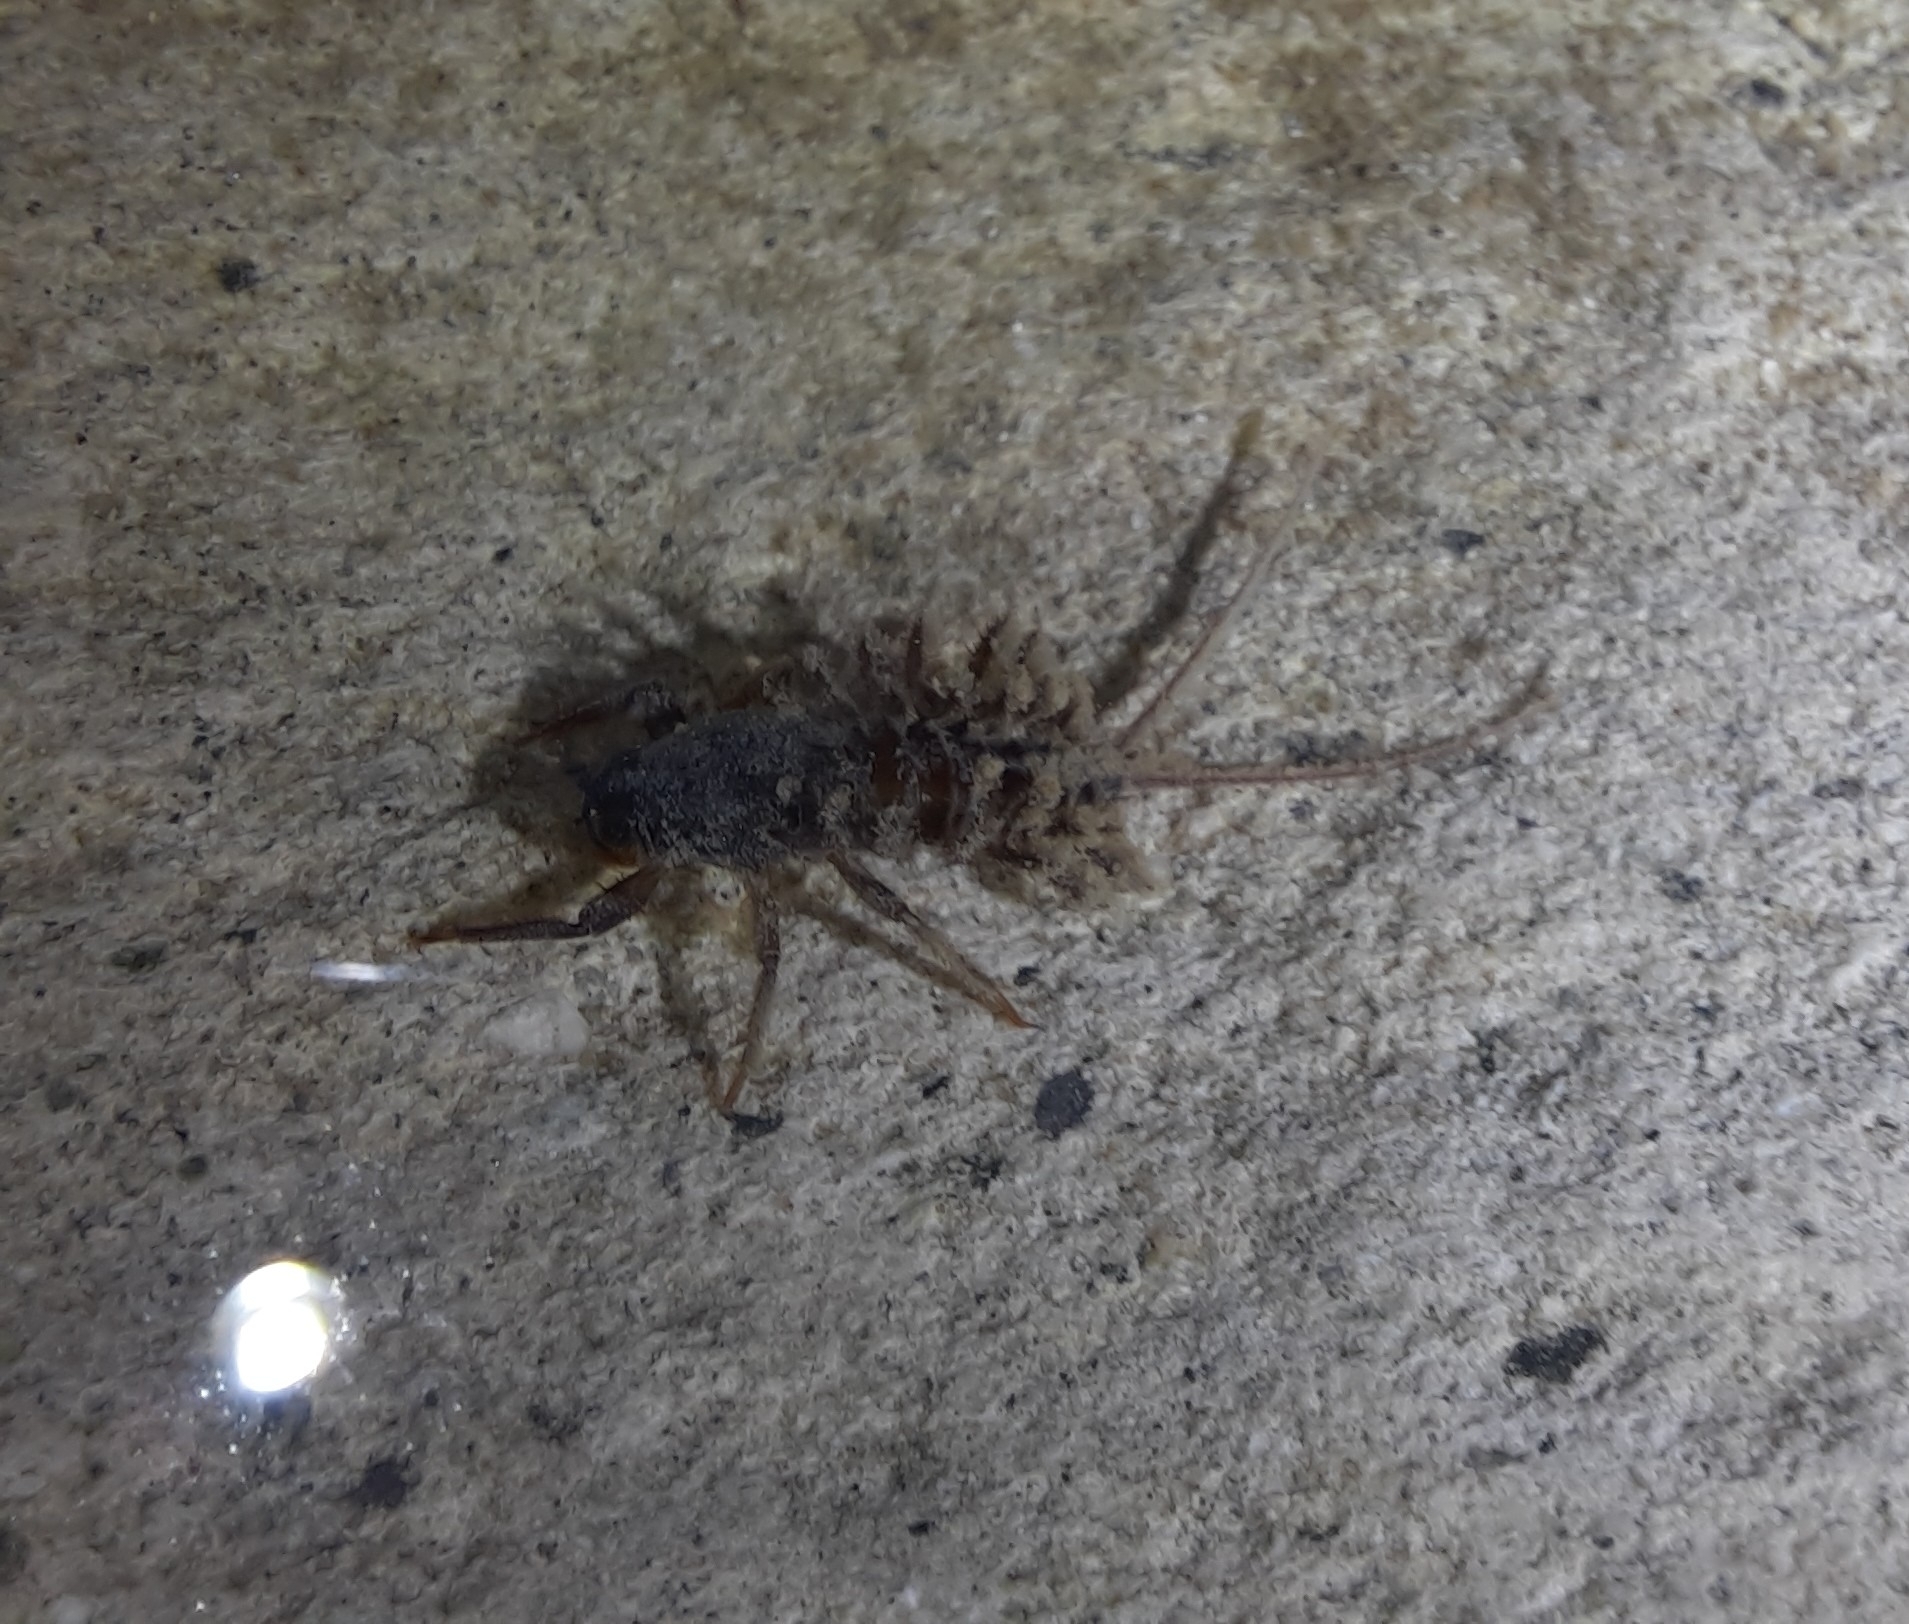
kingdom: Animalia
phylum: Arthropoda
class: Insecta
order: Ephemeroptera
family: Coloburiscidae
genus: Coloburiscus
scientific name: Coloburiscus humeralis
